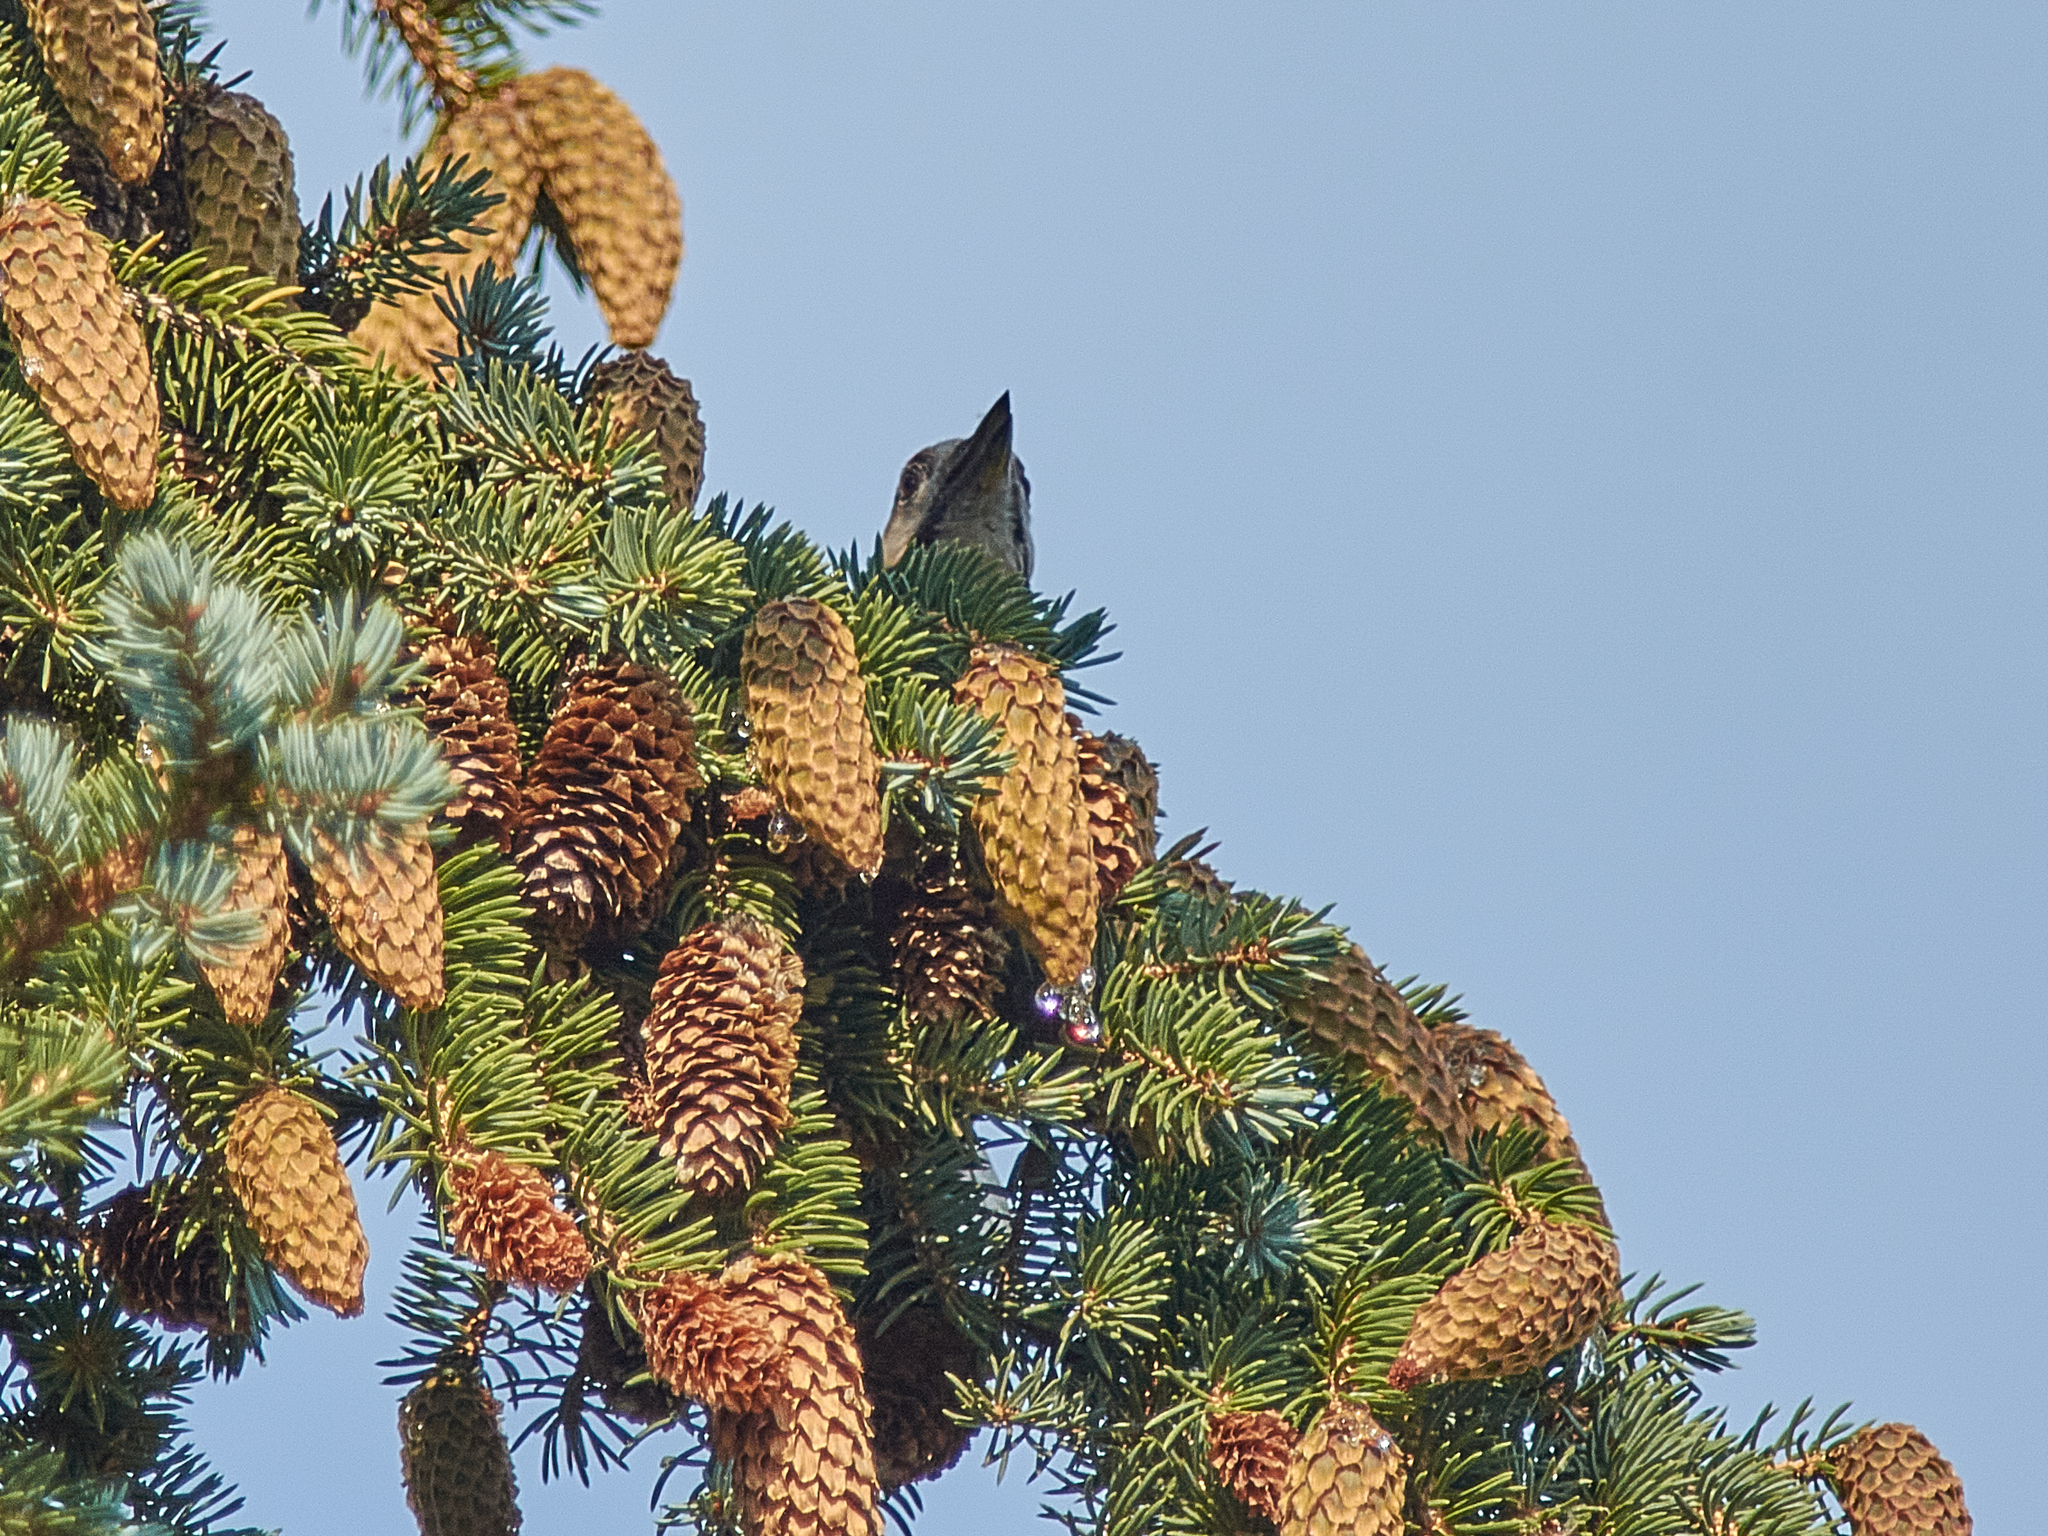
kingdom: Animalia
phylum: Chordata
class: Aves
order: Piciformes
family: Picidae
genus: Dendrocopos
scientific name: Dendrocopos major
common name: Great spotted woodpecker
